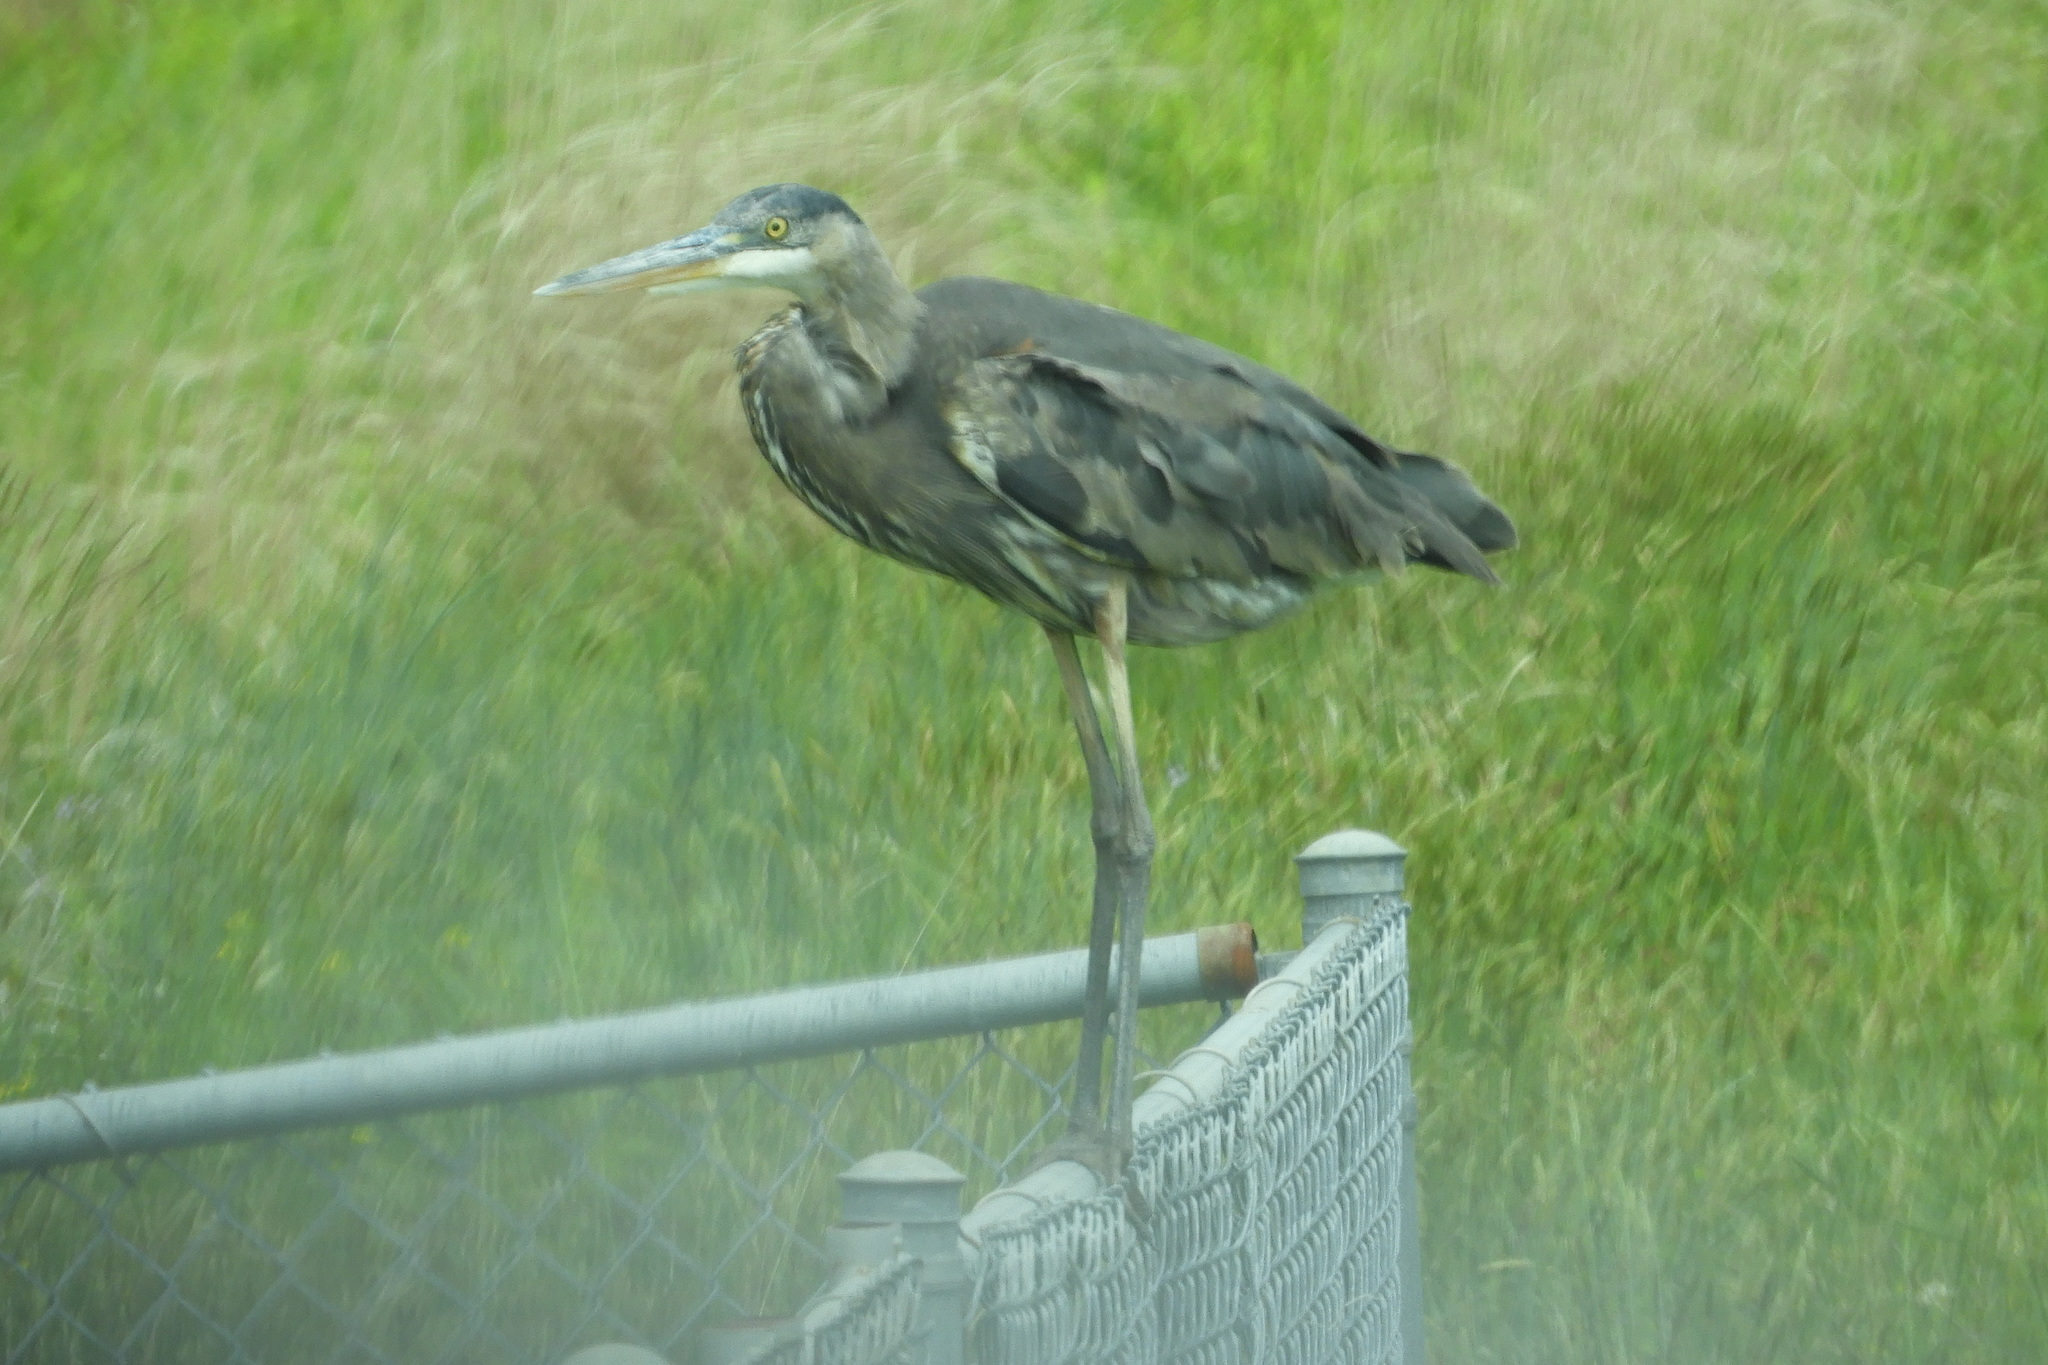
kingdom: Animalia
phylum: Chordata
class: Aves
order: Pelecaniformes
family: Ardeidae
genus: Ardea
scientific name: Ardea herodias
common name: Great blue heron
